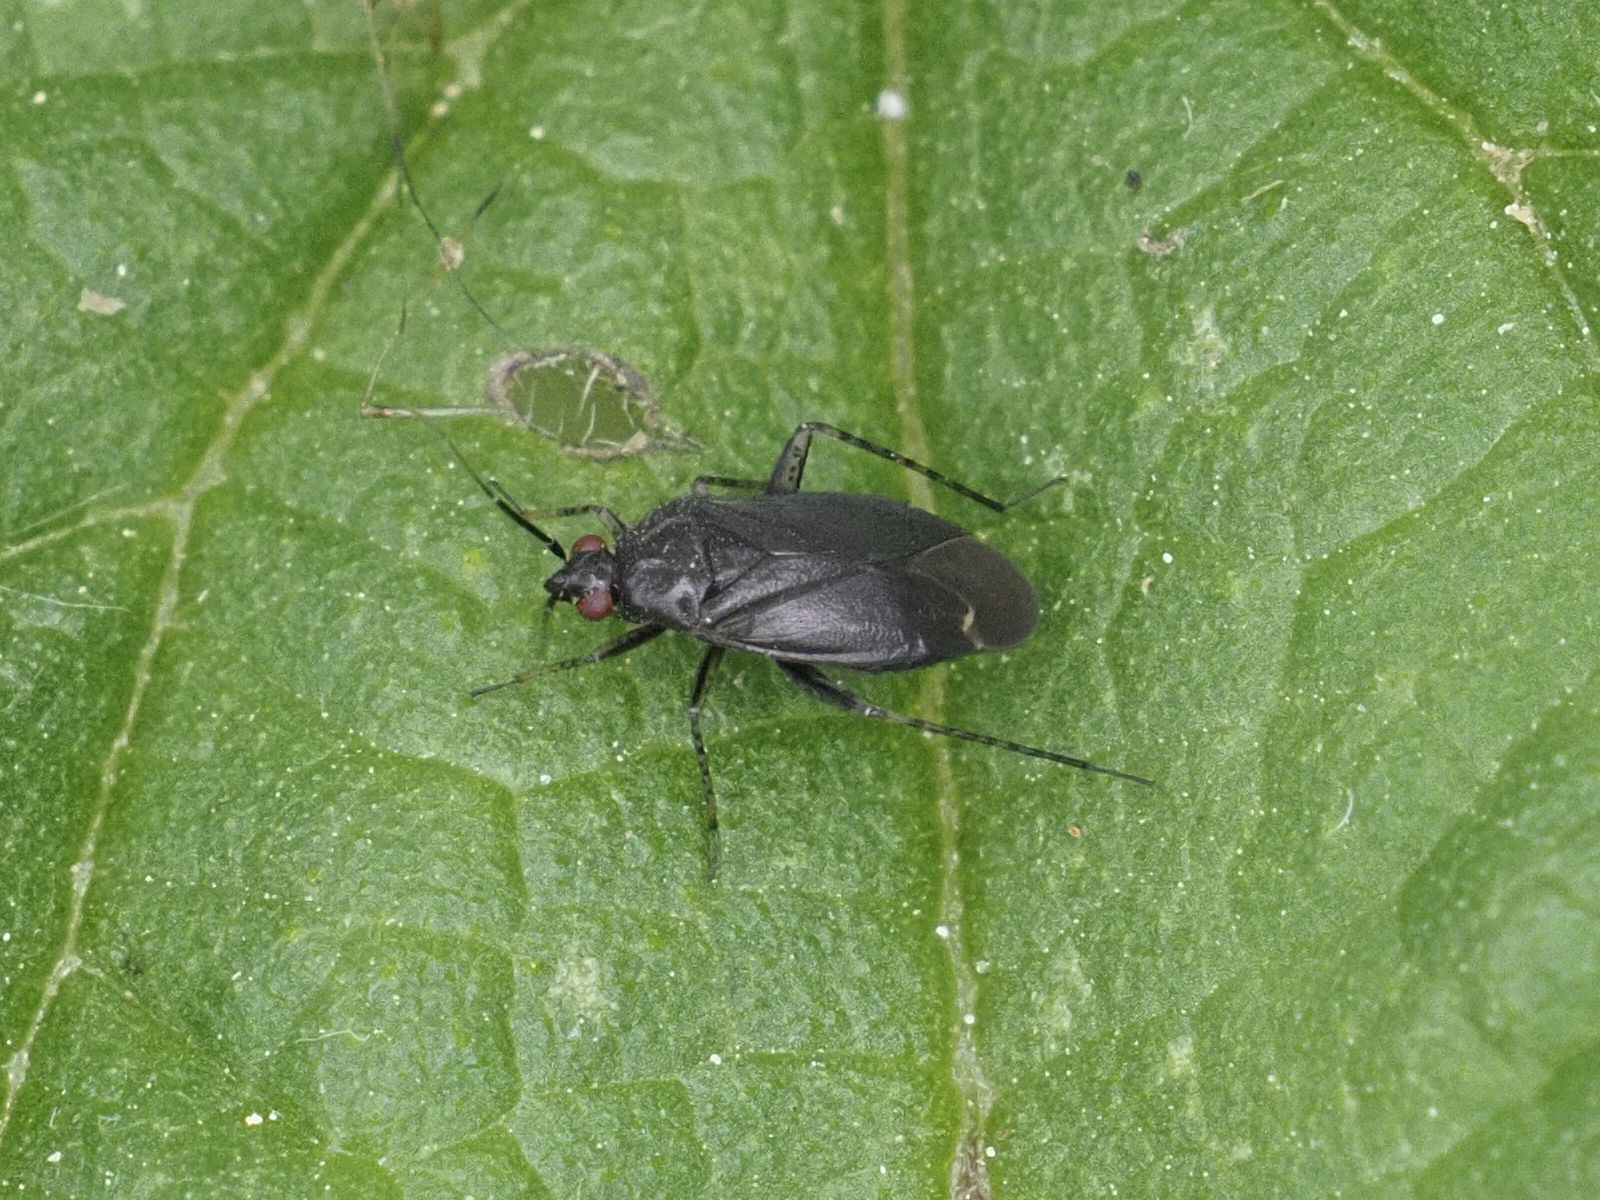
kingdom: Animalia
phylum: Arthropoda
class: Insecta
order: Hemiptera
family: Miridae
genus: Plagiognathus
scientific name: Plagiognathus arbustorum
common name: Plant bug
